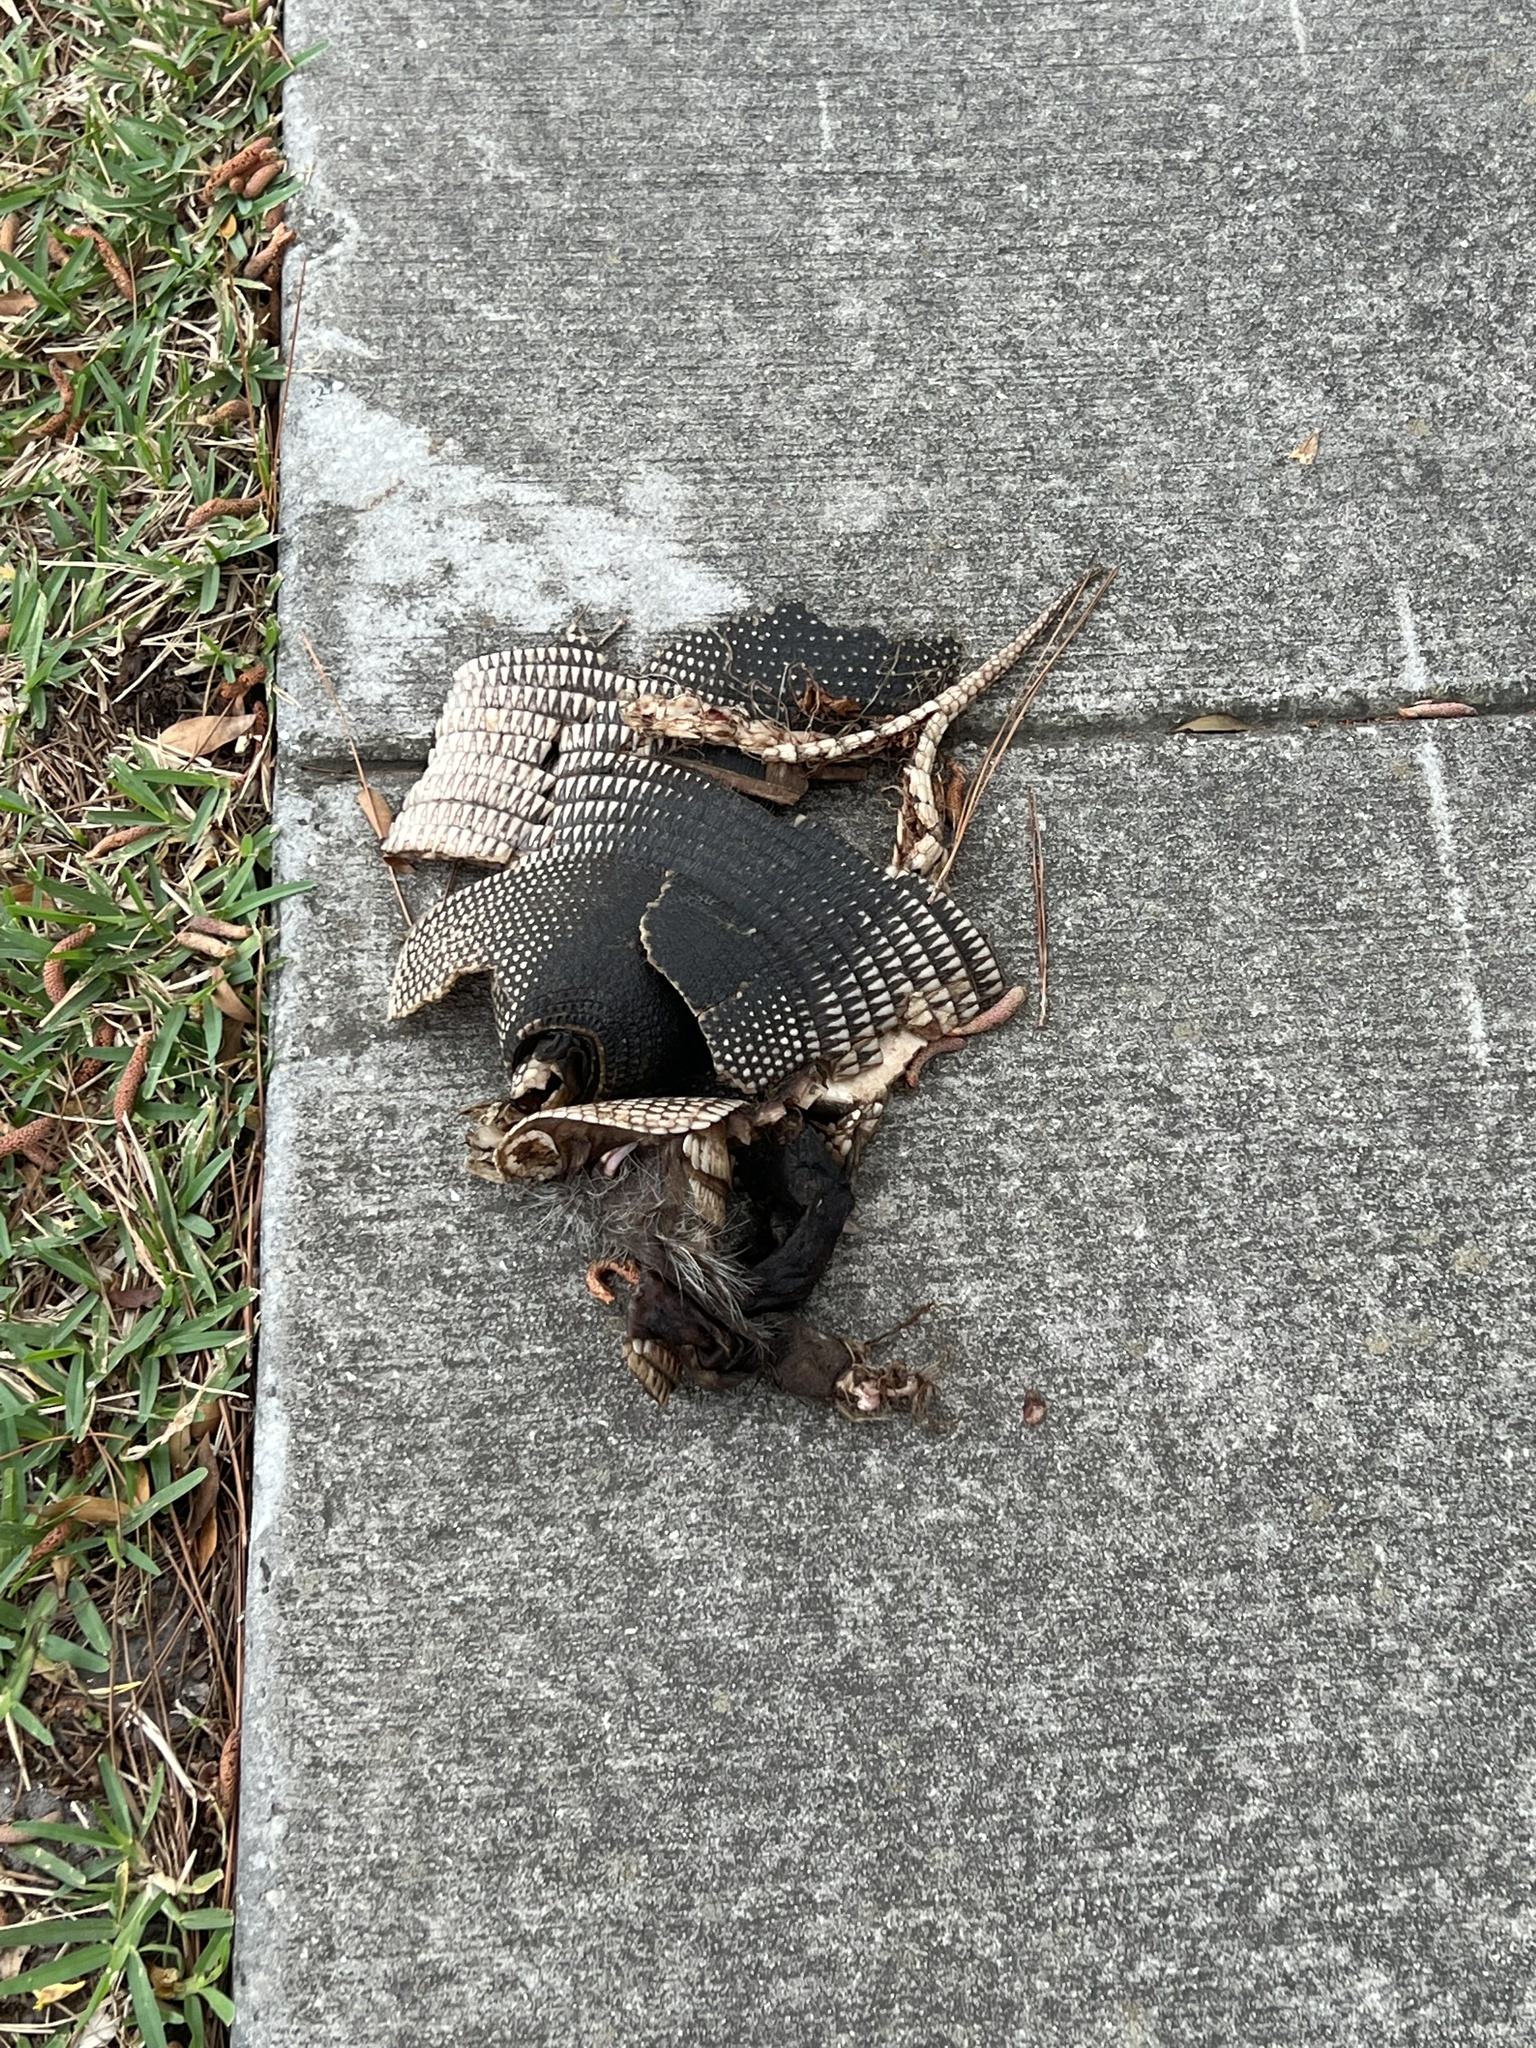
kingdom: Animalia
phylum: Chordata
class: Mammalia
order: Cingulata
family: Dasypodidae
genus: Dasypus
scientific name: Dasypus novemcinctus
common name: Nine-banded armadillo
